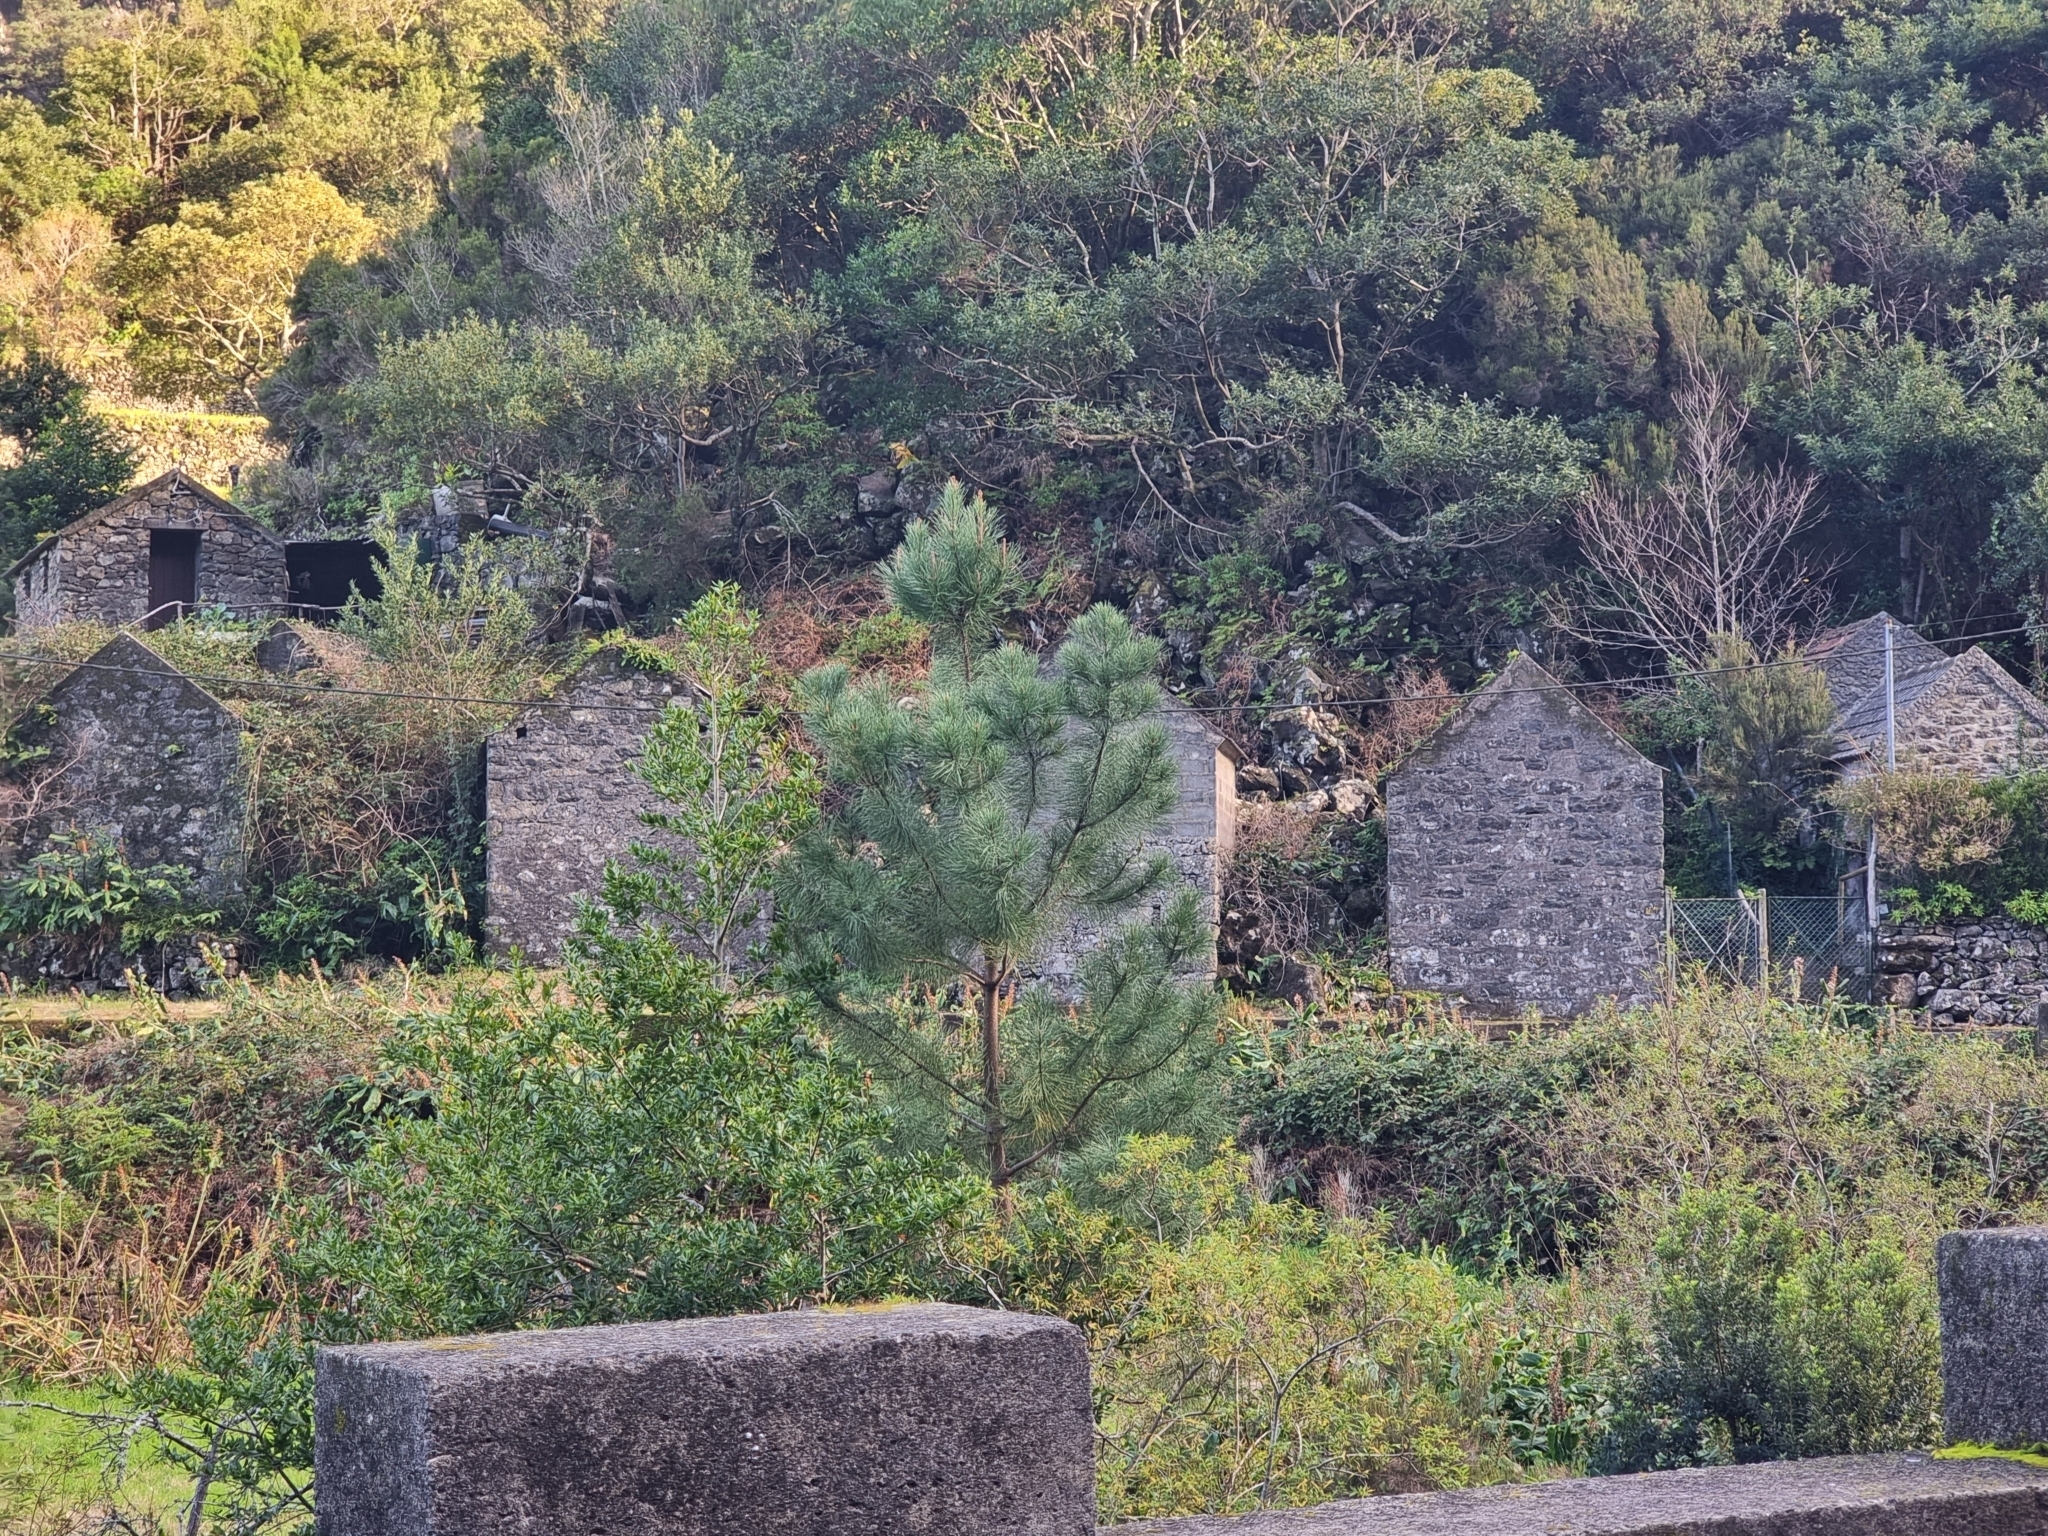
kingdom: Plantae
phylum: Tracheophyta
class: Pinopsida
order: Pinales
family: Pinaceae
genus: Pinus
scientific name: Pinus pinaster
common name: Maritime pine
